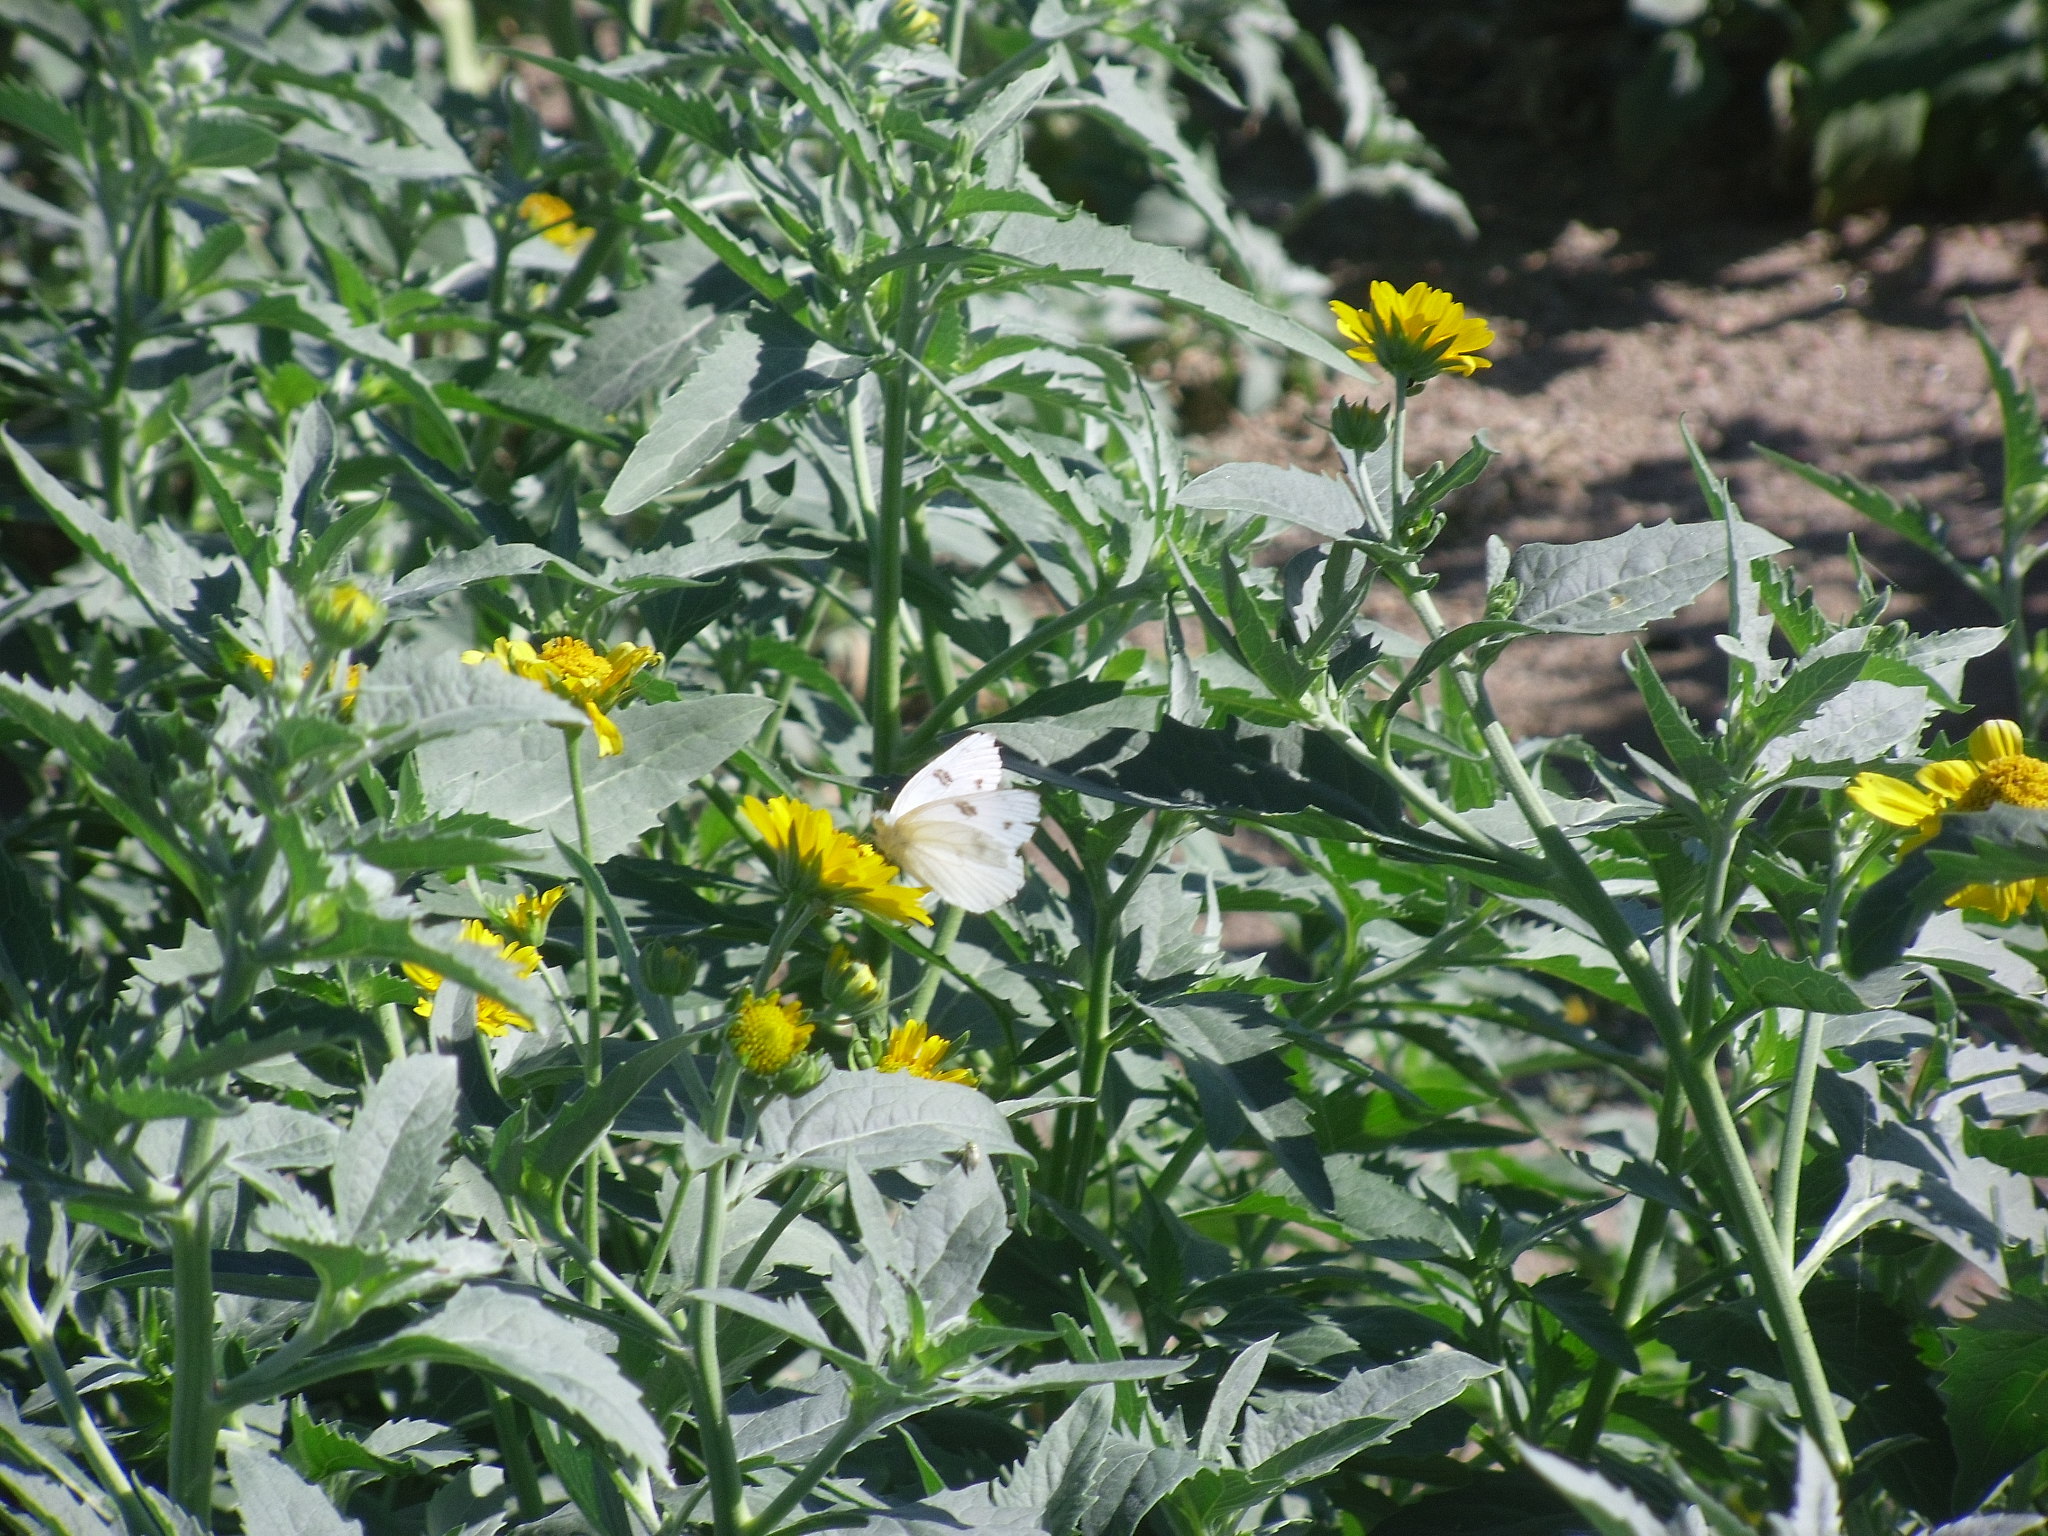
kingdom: Animalia
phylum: Arthropoda
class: Insecta
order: Lepidoptera
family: Pieridae
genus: Pieris
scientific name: Pieris rapae
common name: Small white
